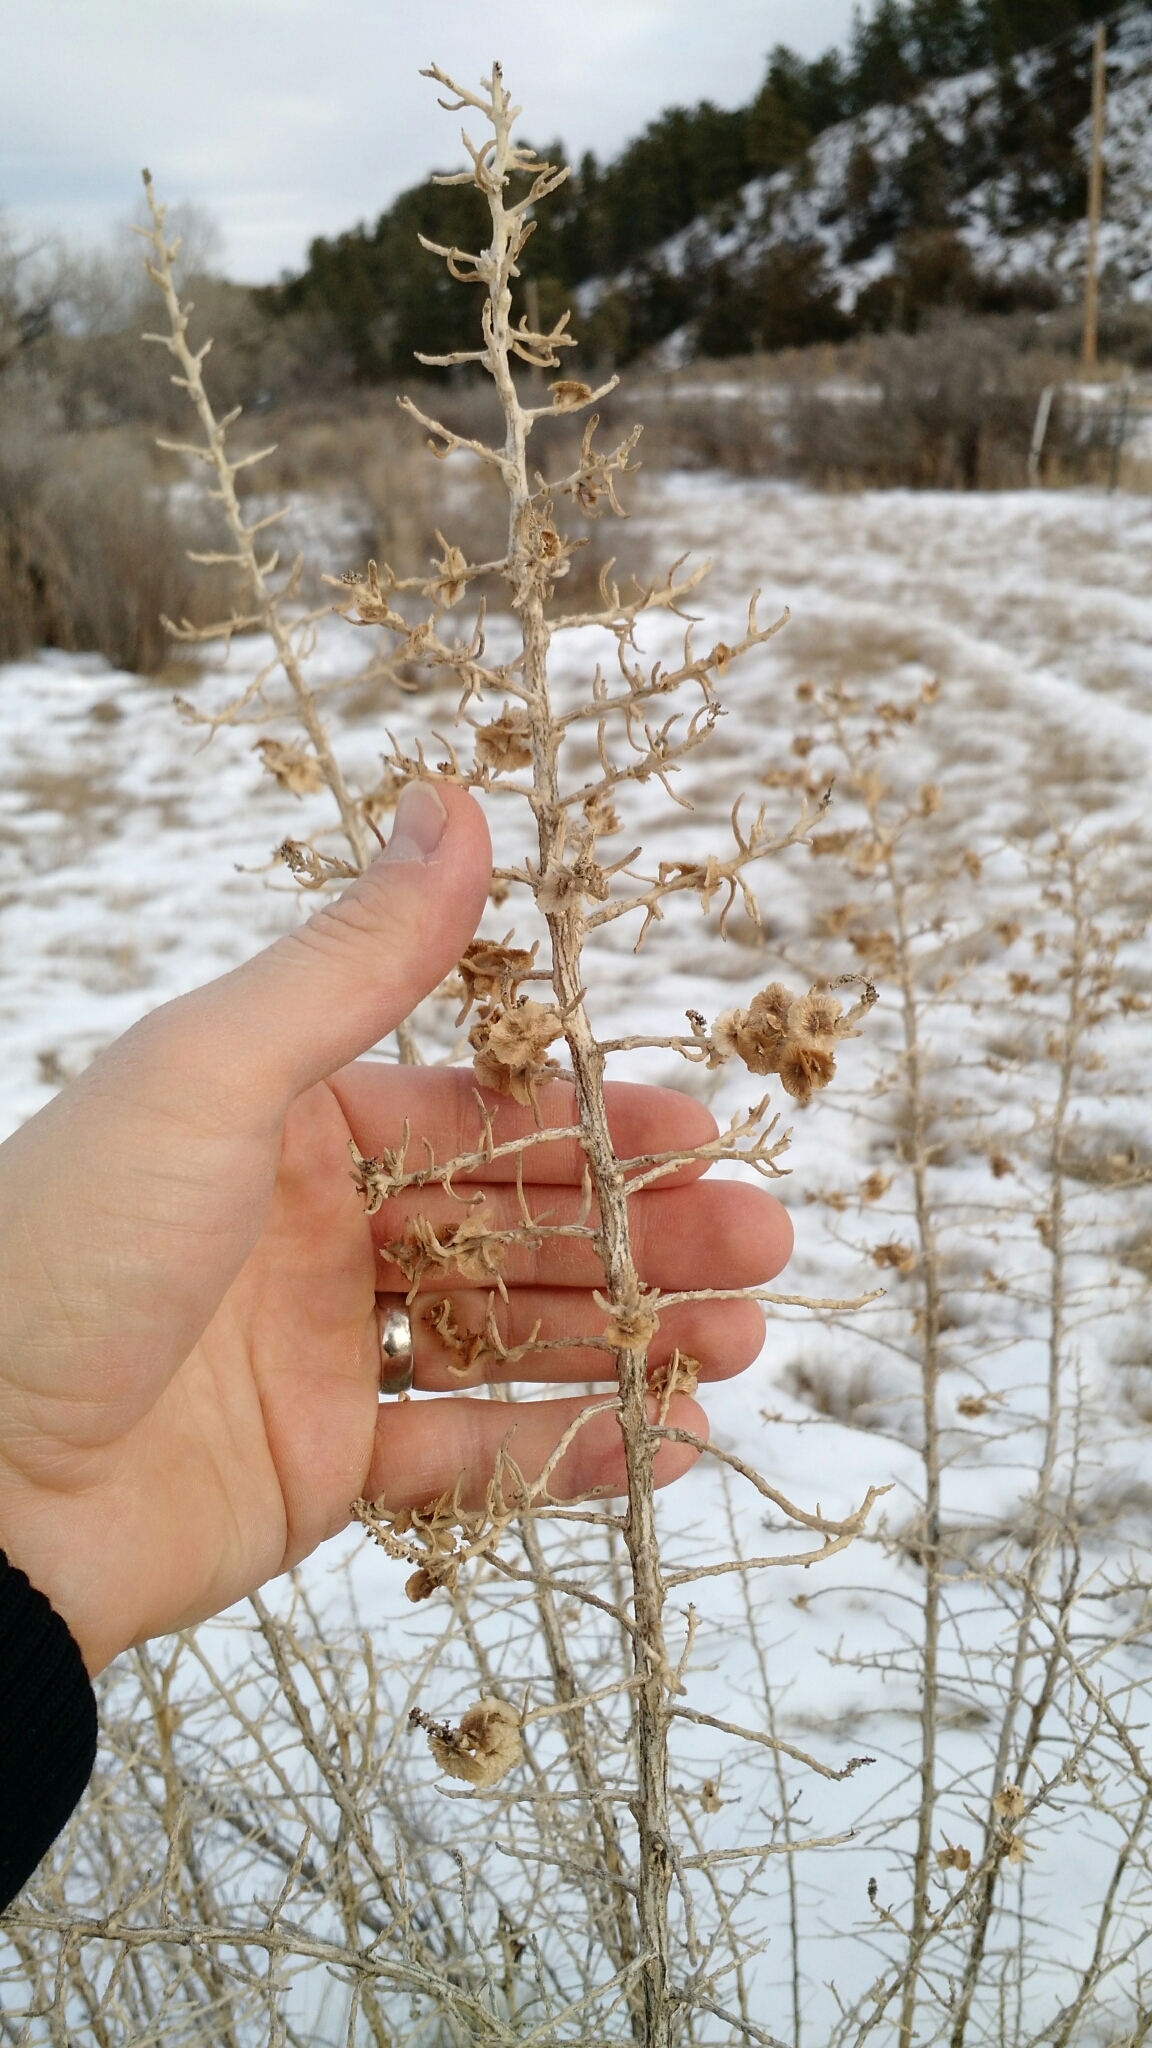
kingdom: Plantae
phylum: Tracheophyta
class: Magnoliopsida
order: Caryophyllales
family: Sarcobataceae
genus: Sarcobatus
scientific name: Sarcobatus vermiculatus
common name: Greasewood
